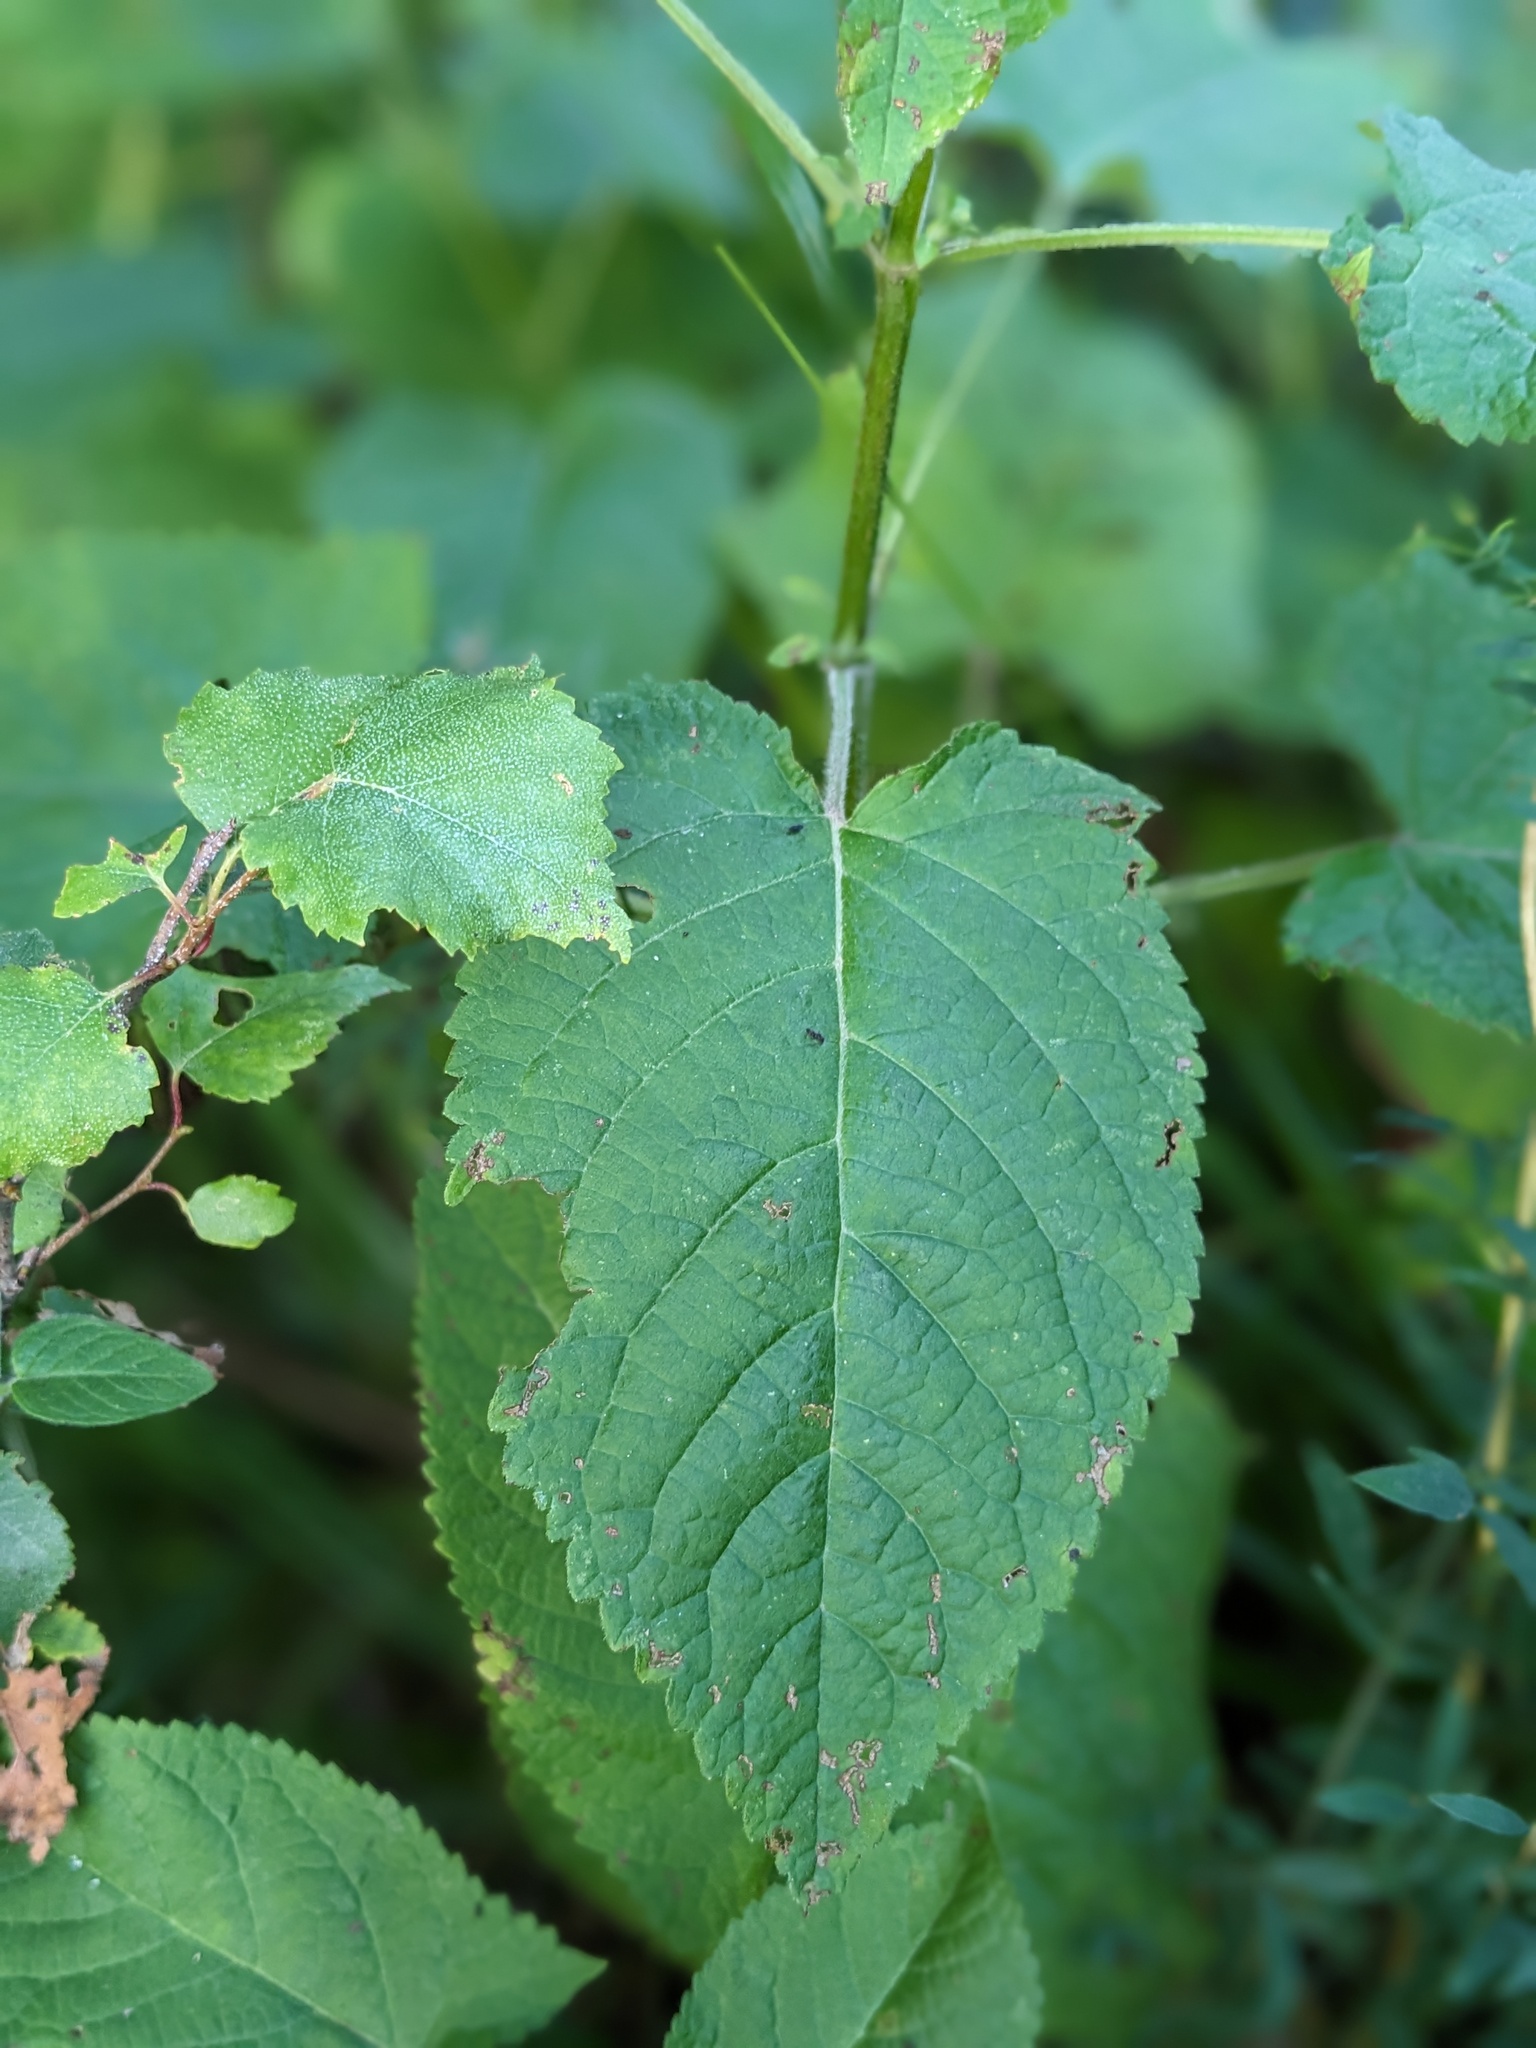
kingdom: Plantae
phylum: Tracheophyta
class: Magnoliopsida
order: Lamiales
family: Lamiaceae
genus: Salvia
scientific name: Salvia glutinosa
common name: Sticky clary
